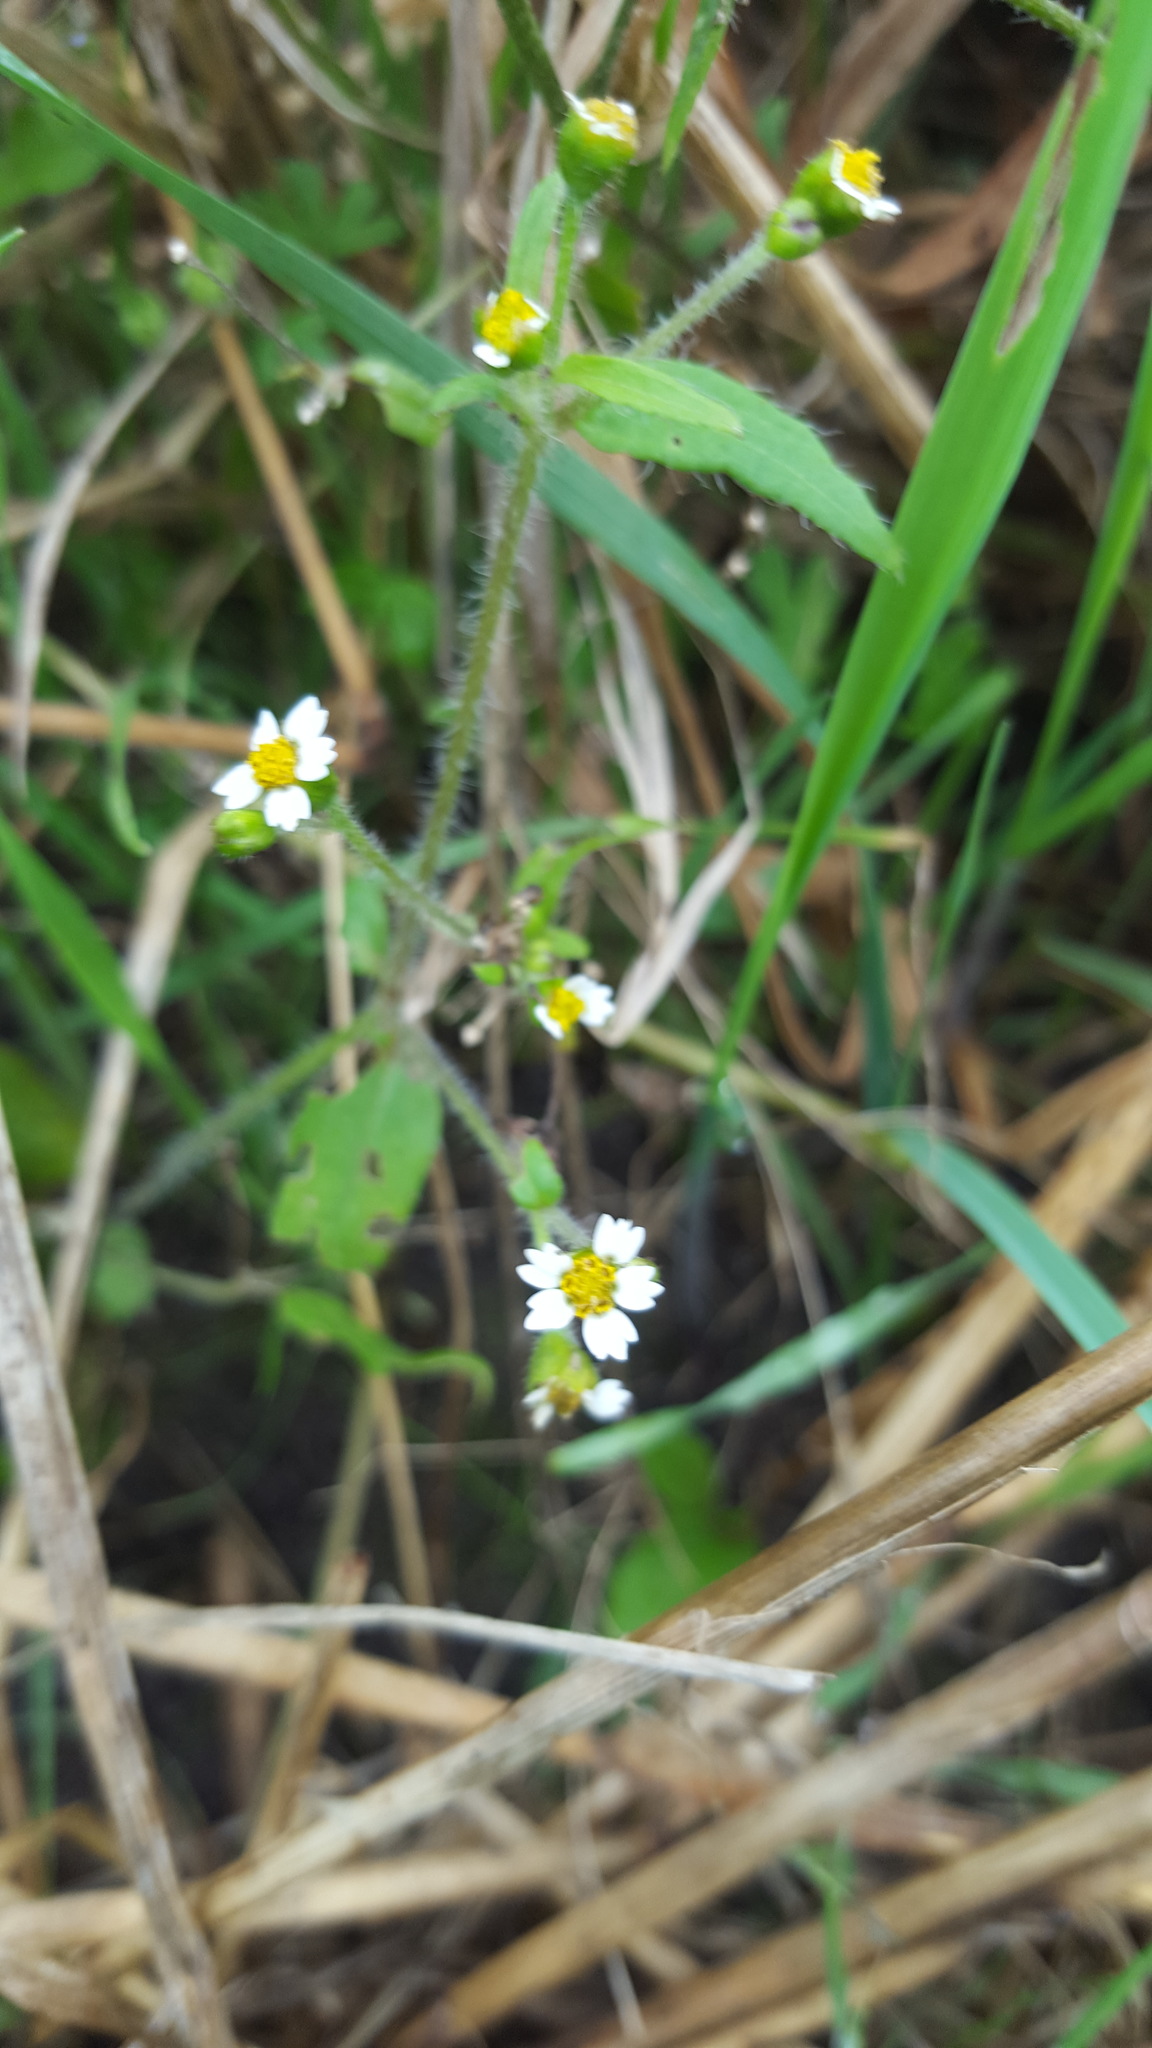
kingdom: Plantae
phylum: Tracheophyta
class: Magnoliopsida
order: Asterales
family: Asteraceae
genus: Galinsoga
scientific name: Galinsoga quadriradiata
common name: Shaggy soldier
